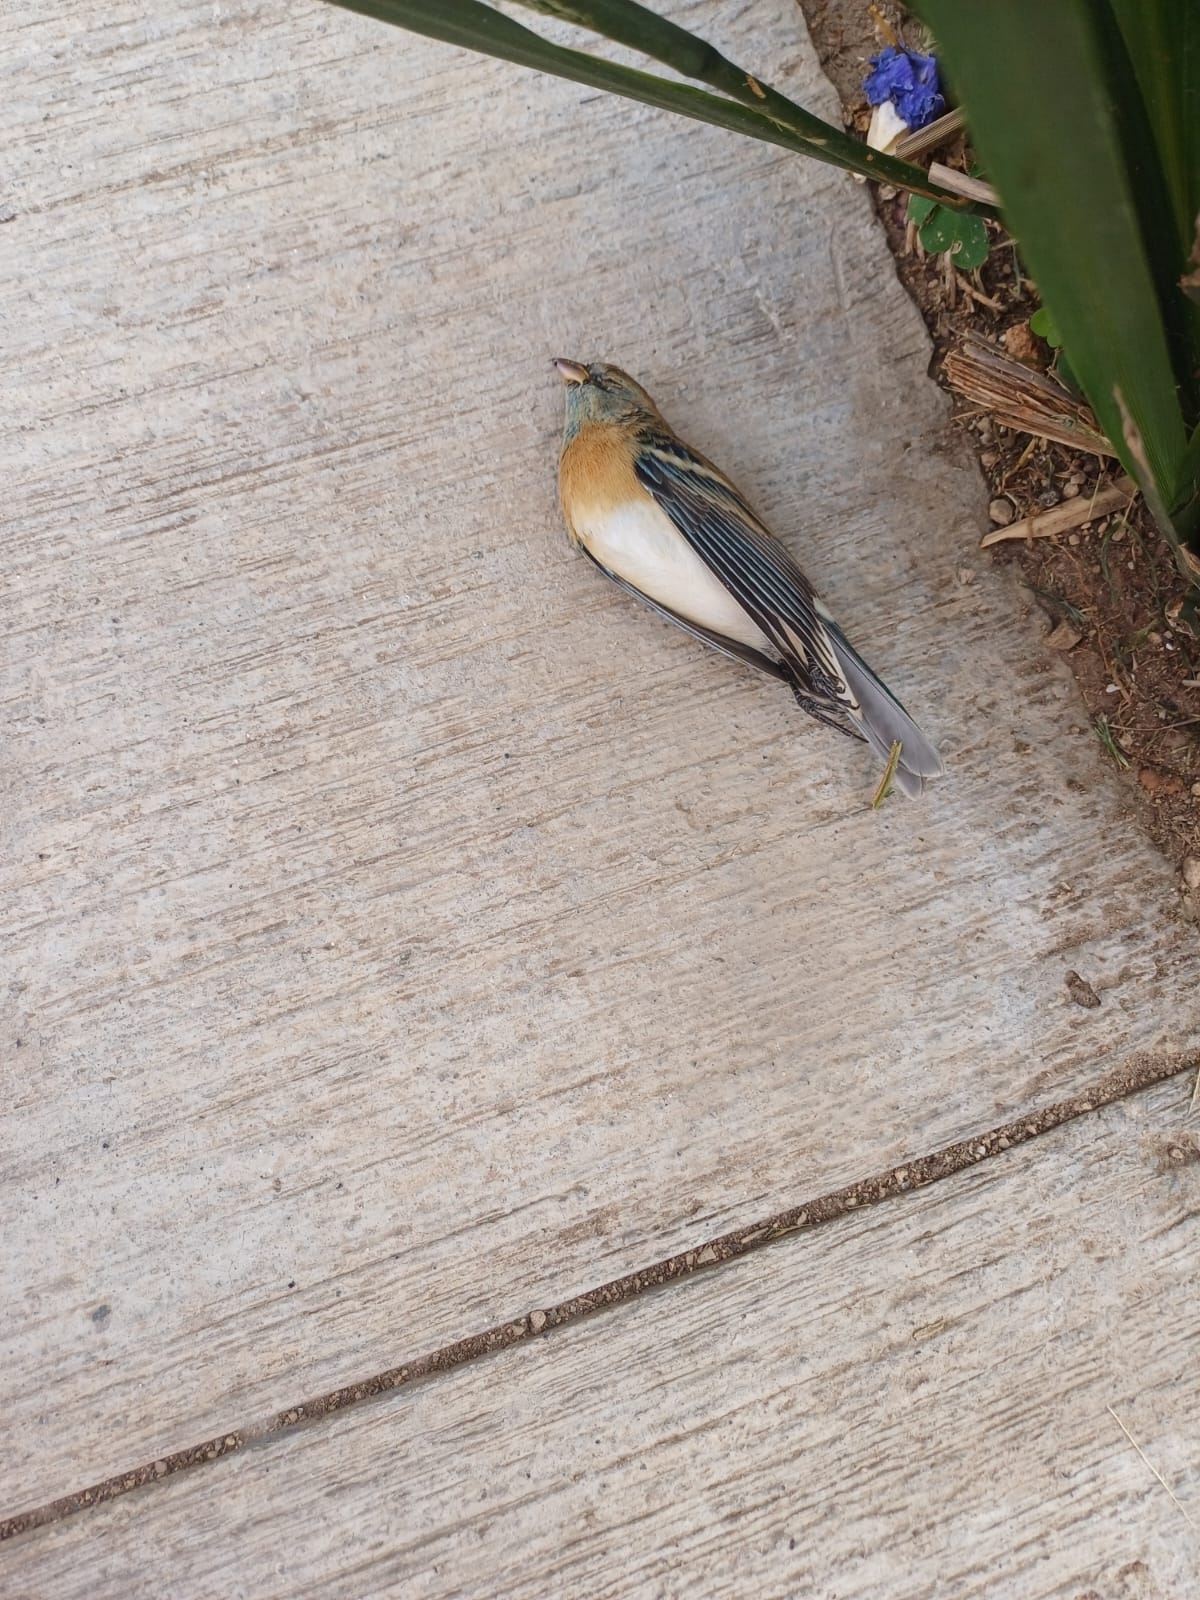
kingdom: Animalia
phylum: Chordata
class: Aves
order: Passeriformes
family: Cardinalidae
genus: Passerina
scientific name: Passerina amoena
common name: Lazuli bunting
